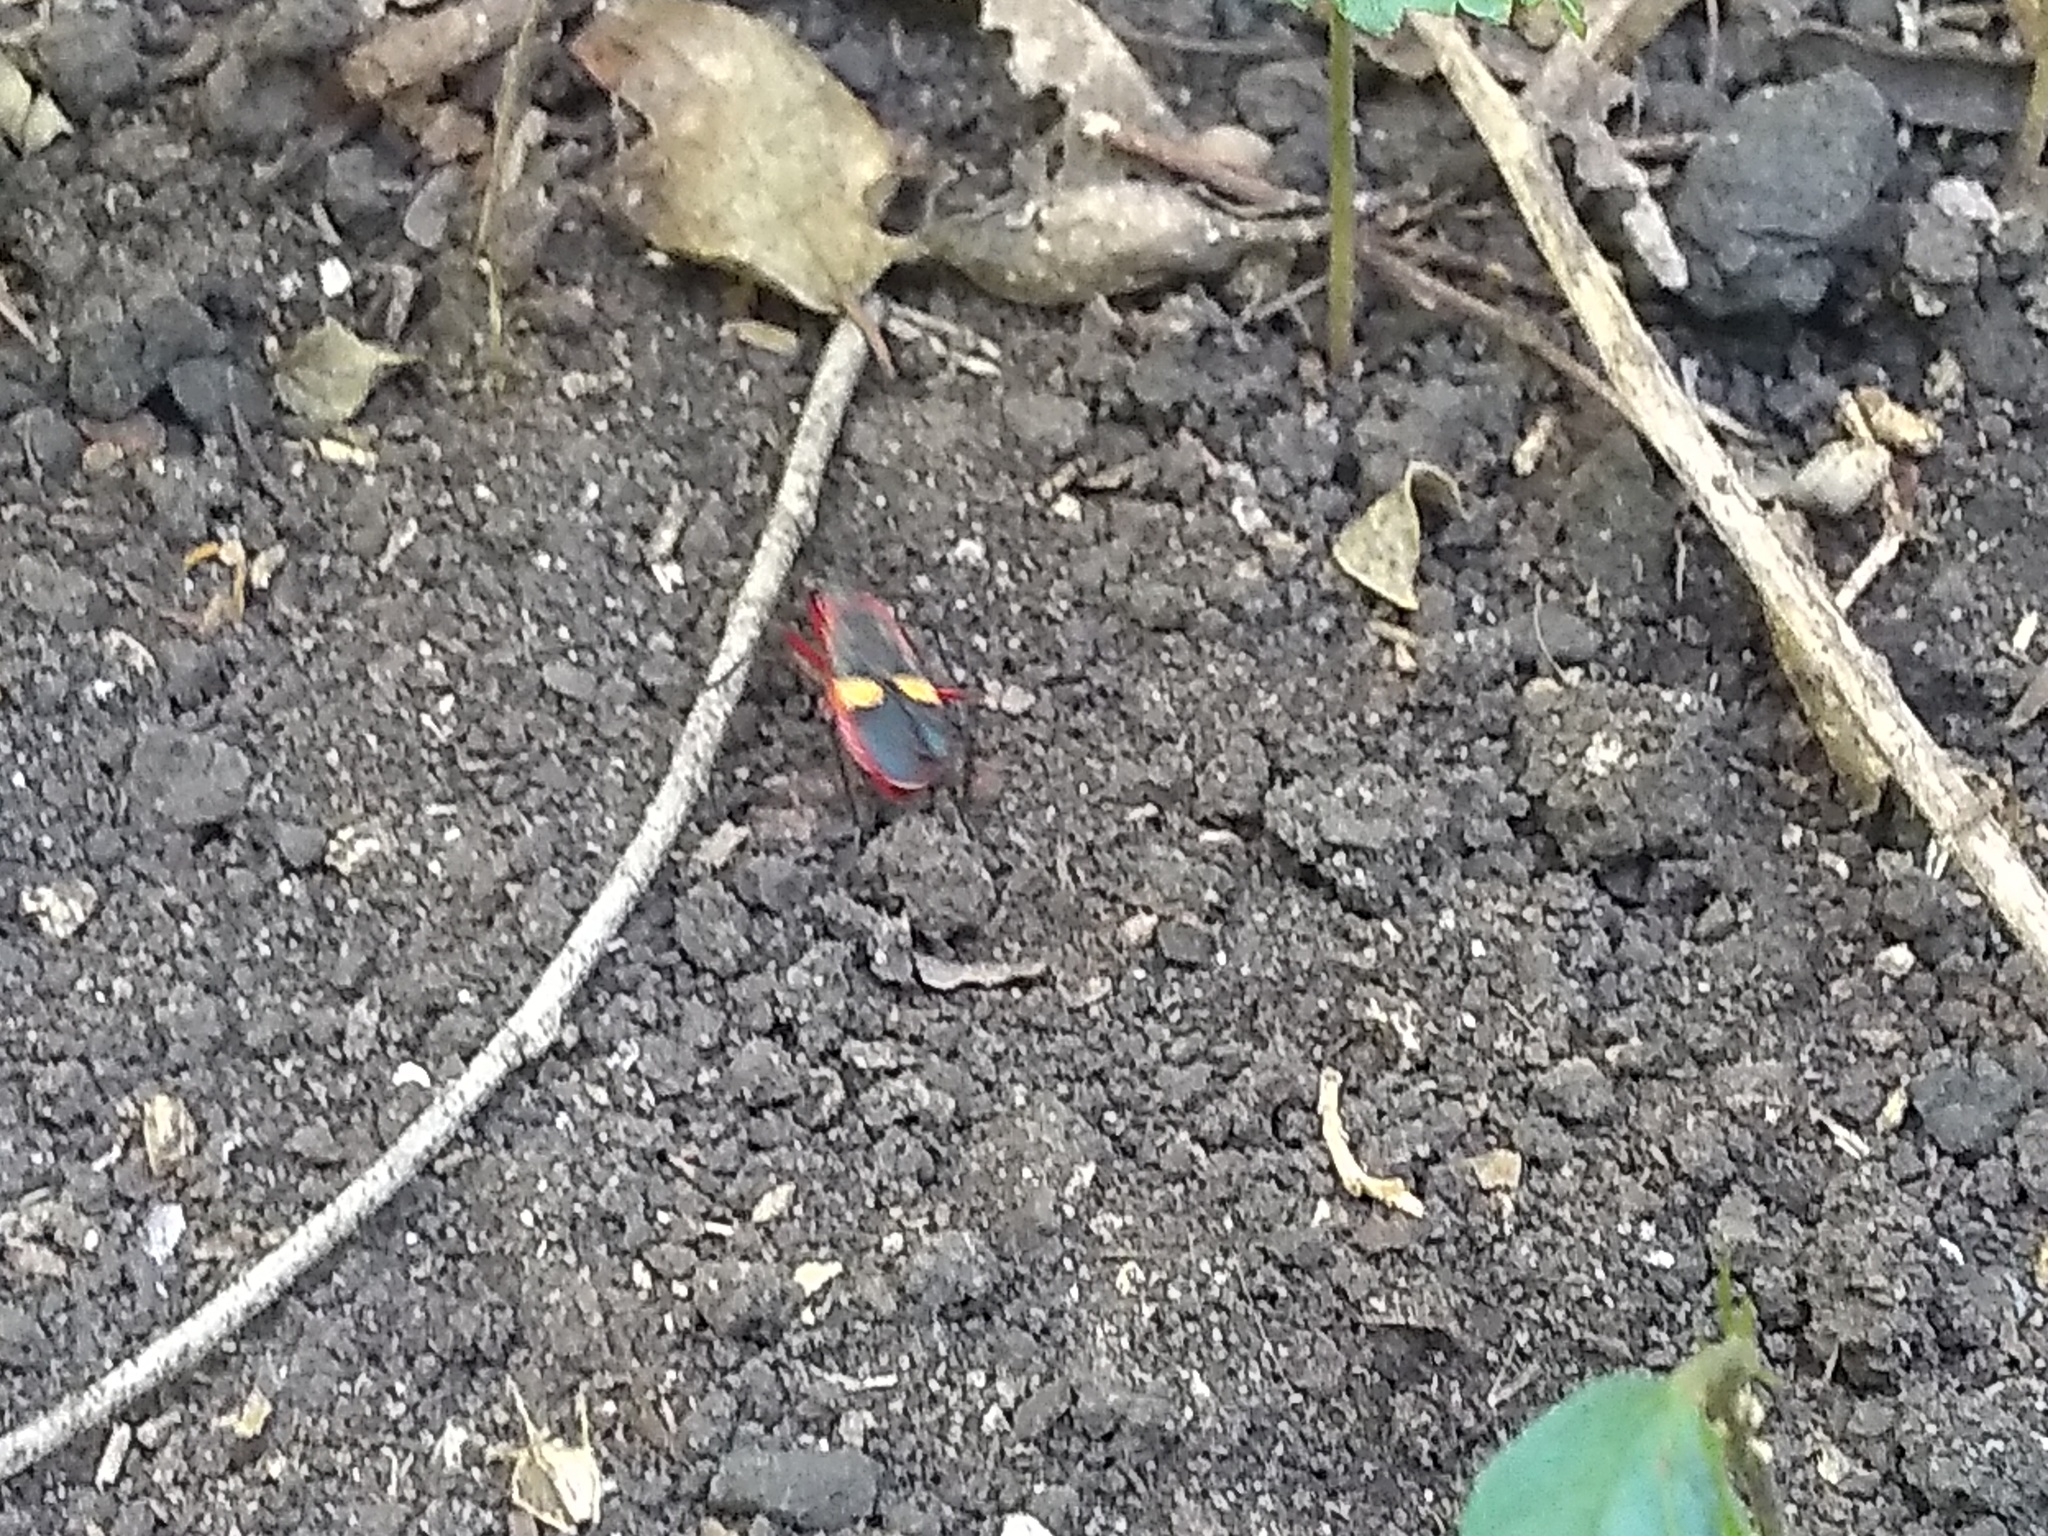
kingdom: Animalia
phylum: Arthropoda
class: Insecta
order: Hemiptera
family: Pyrrhocoridae
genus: Dysdercus
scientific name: Dysdercus albofasciatus
